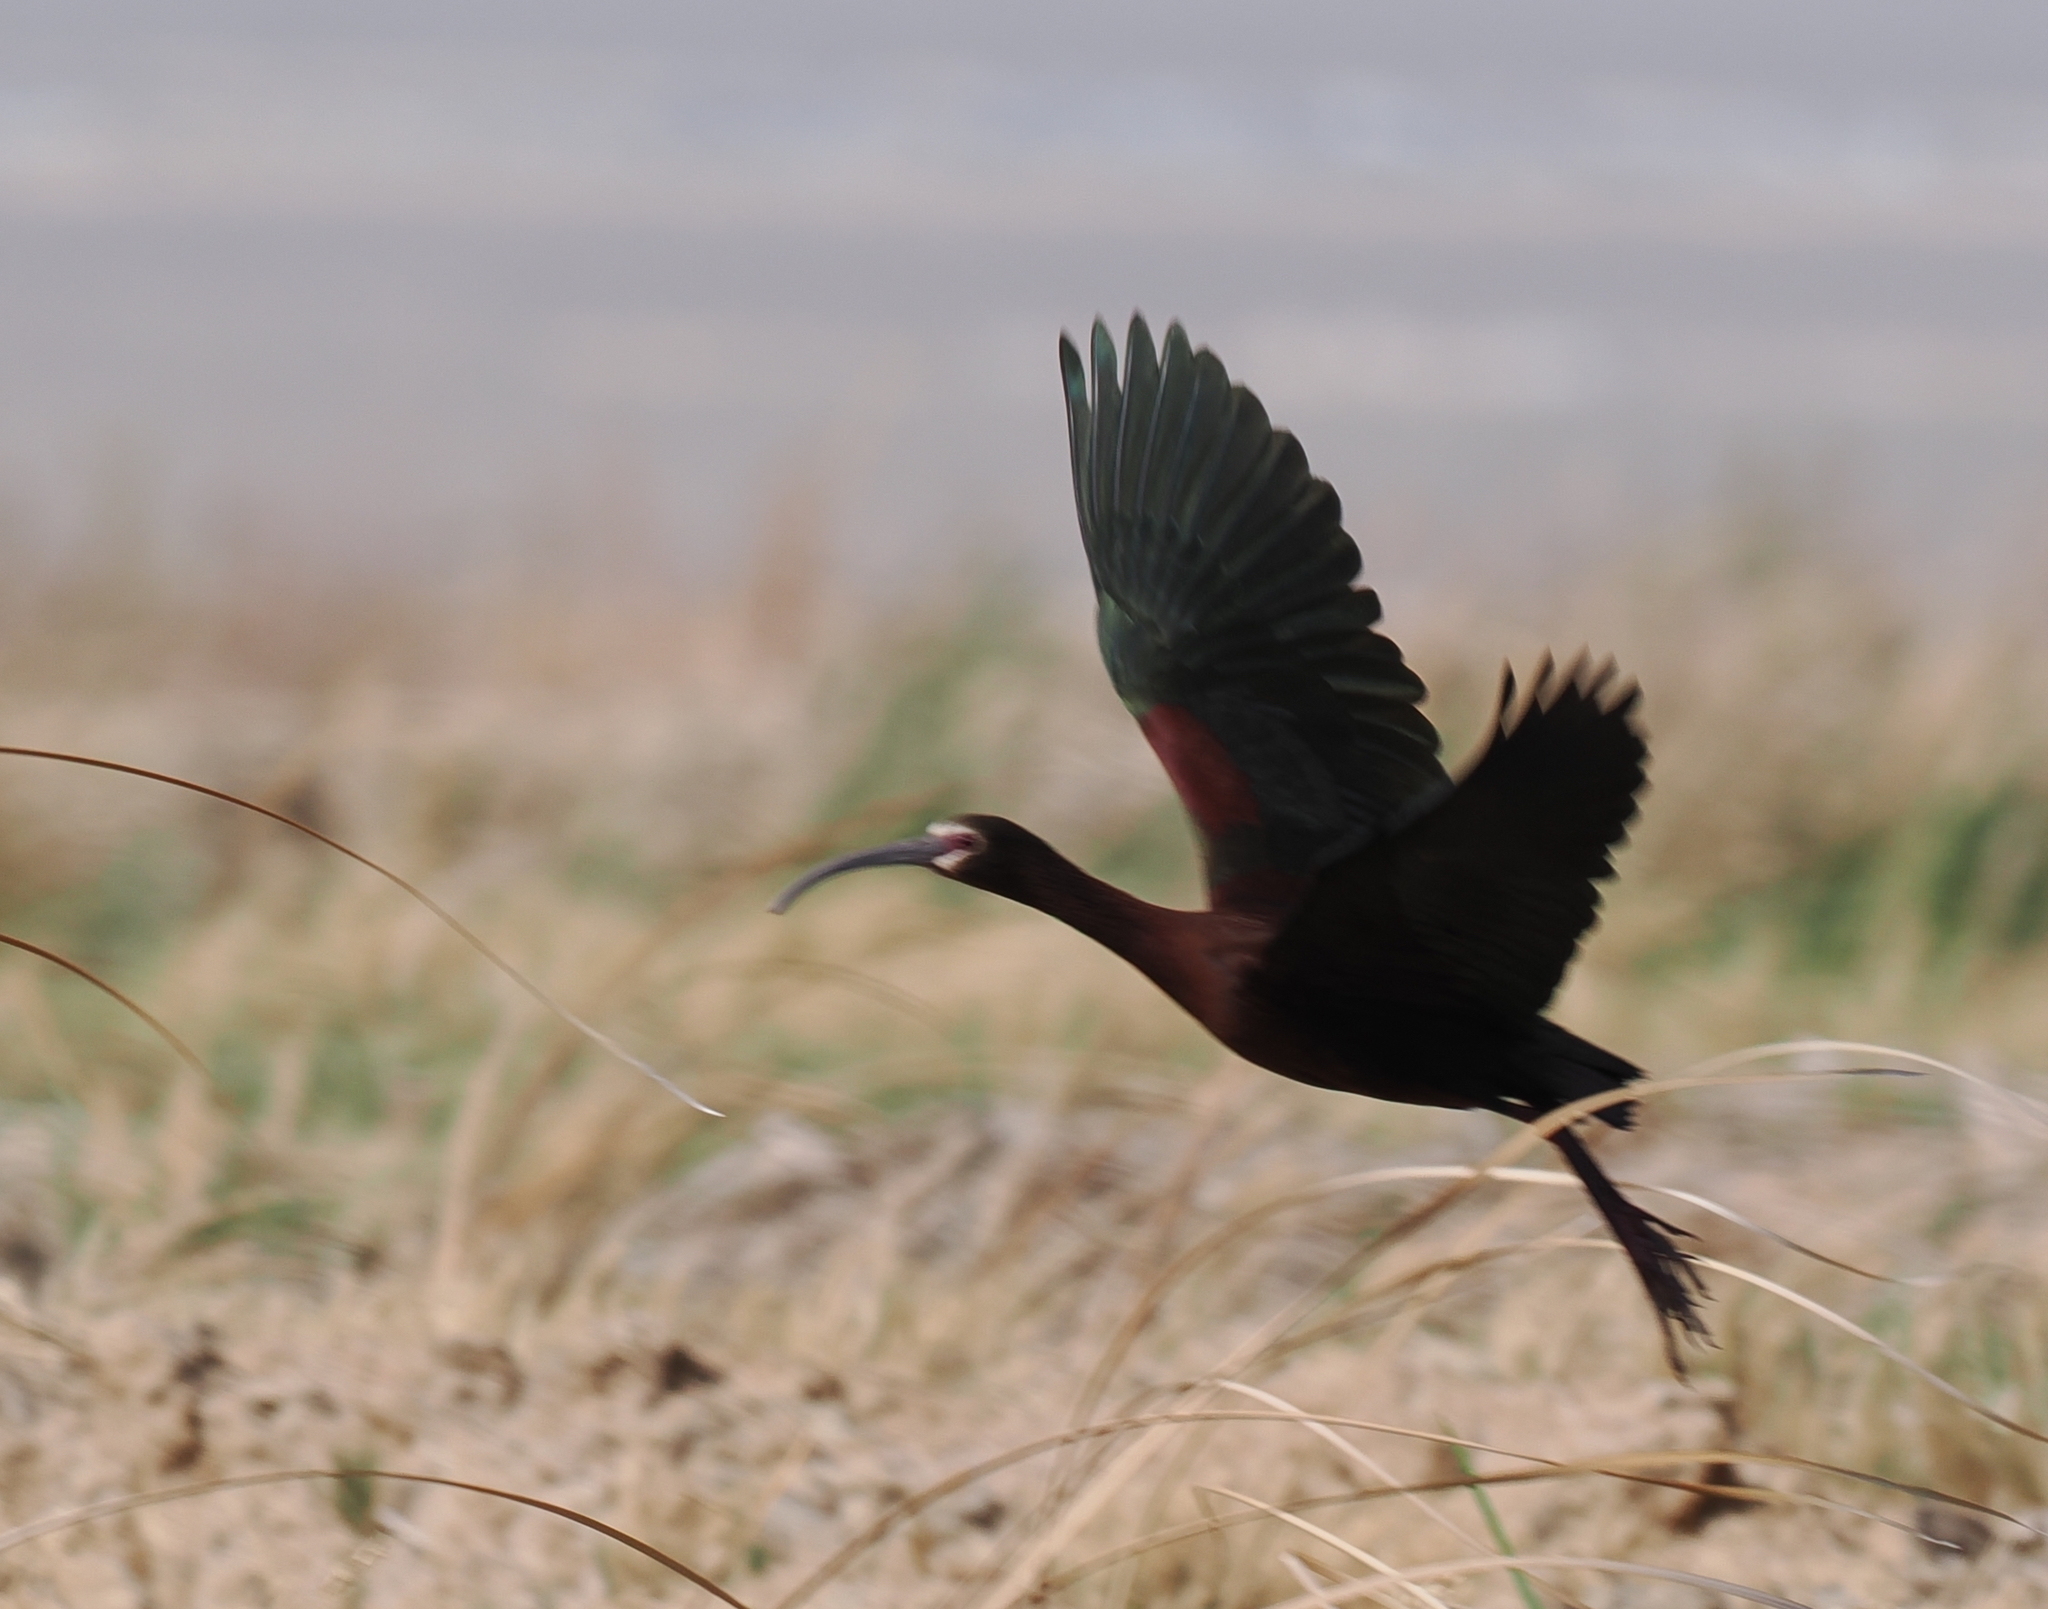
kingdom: Animalia
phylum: Chordata
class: Aves
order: Pelecaniformes
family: Threskiornithidae
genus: Plegadis
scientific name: Plegadis chihi
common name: White-faced ibis
